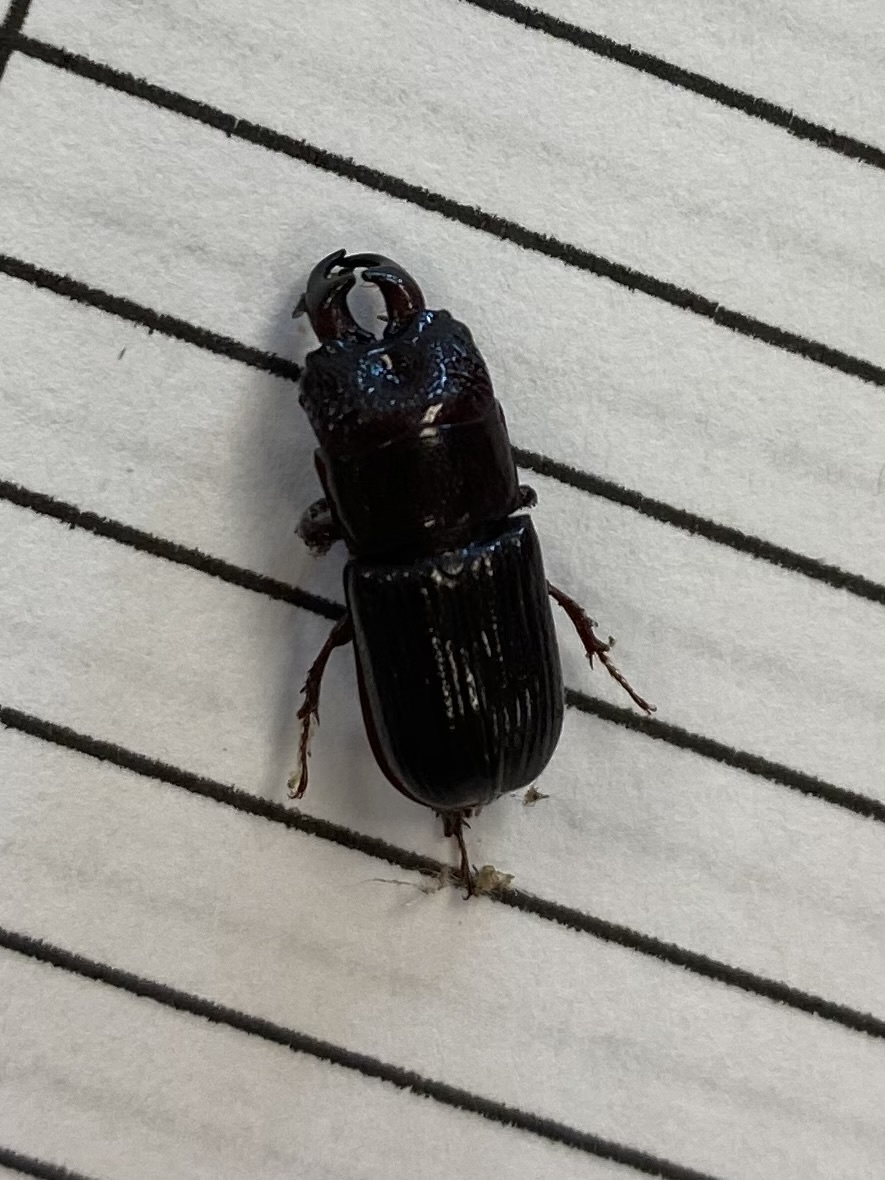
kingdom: Animalia
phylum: Arthropoda
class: Insecta
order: Coleoptera
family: Lucanidae
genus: Ceruchus
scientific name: Ceruchus piceus
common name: Red-rot decay stag beetle
